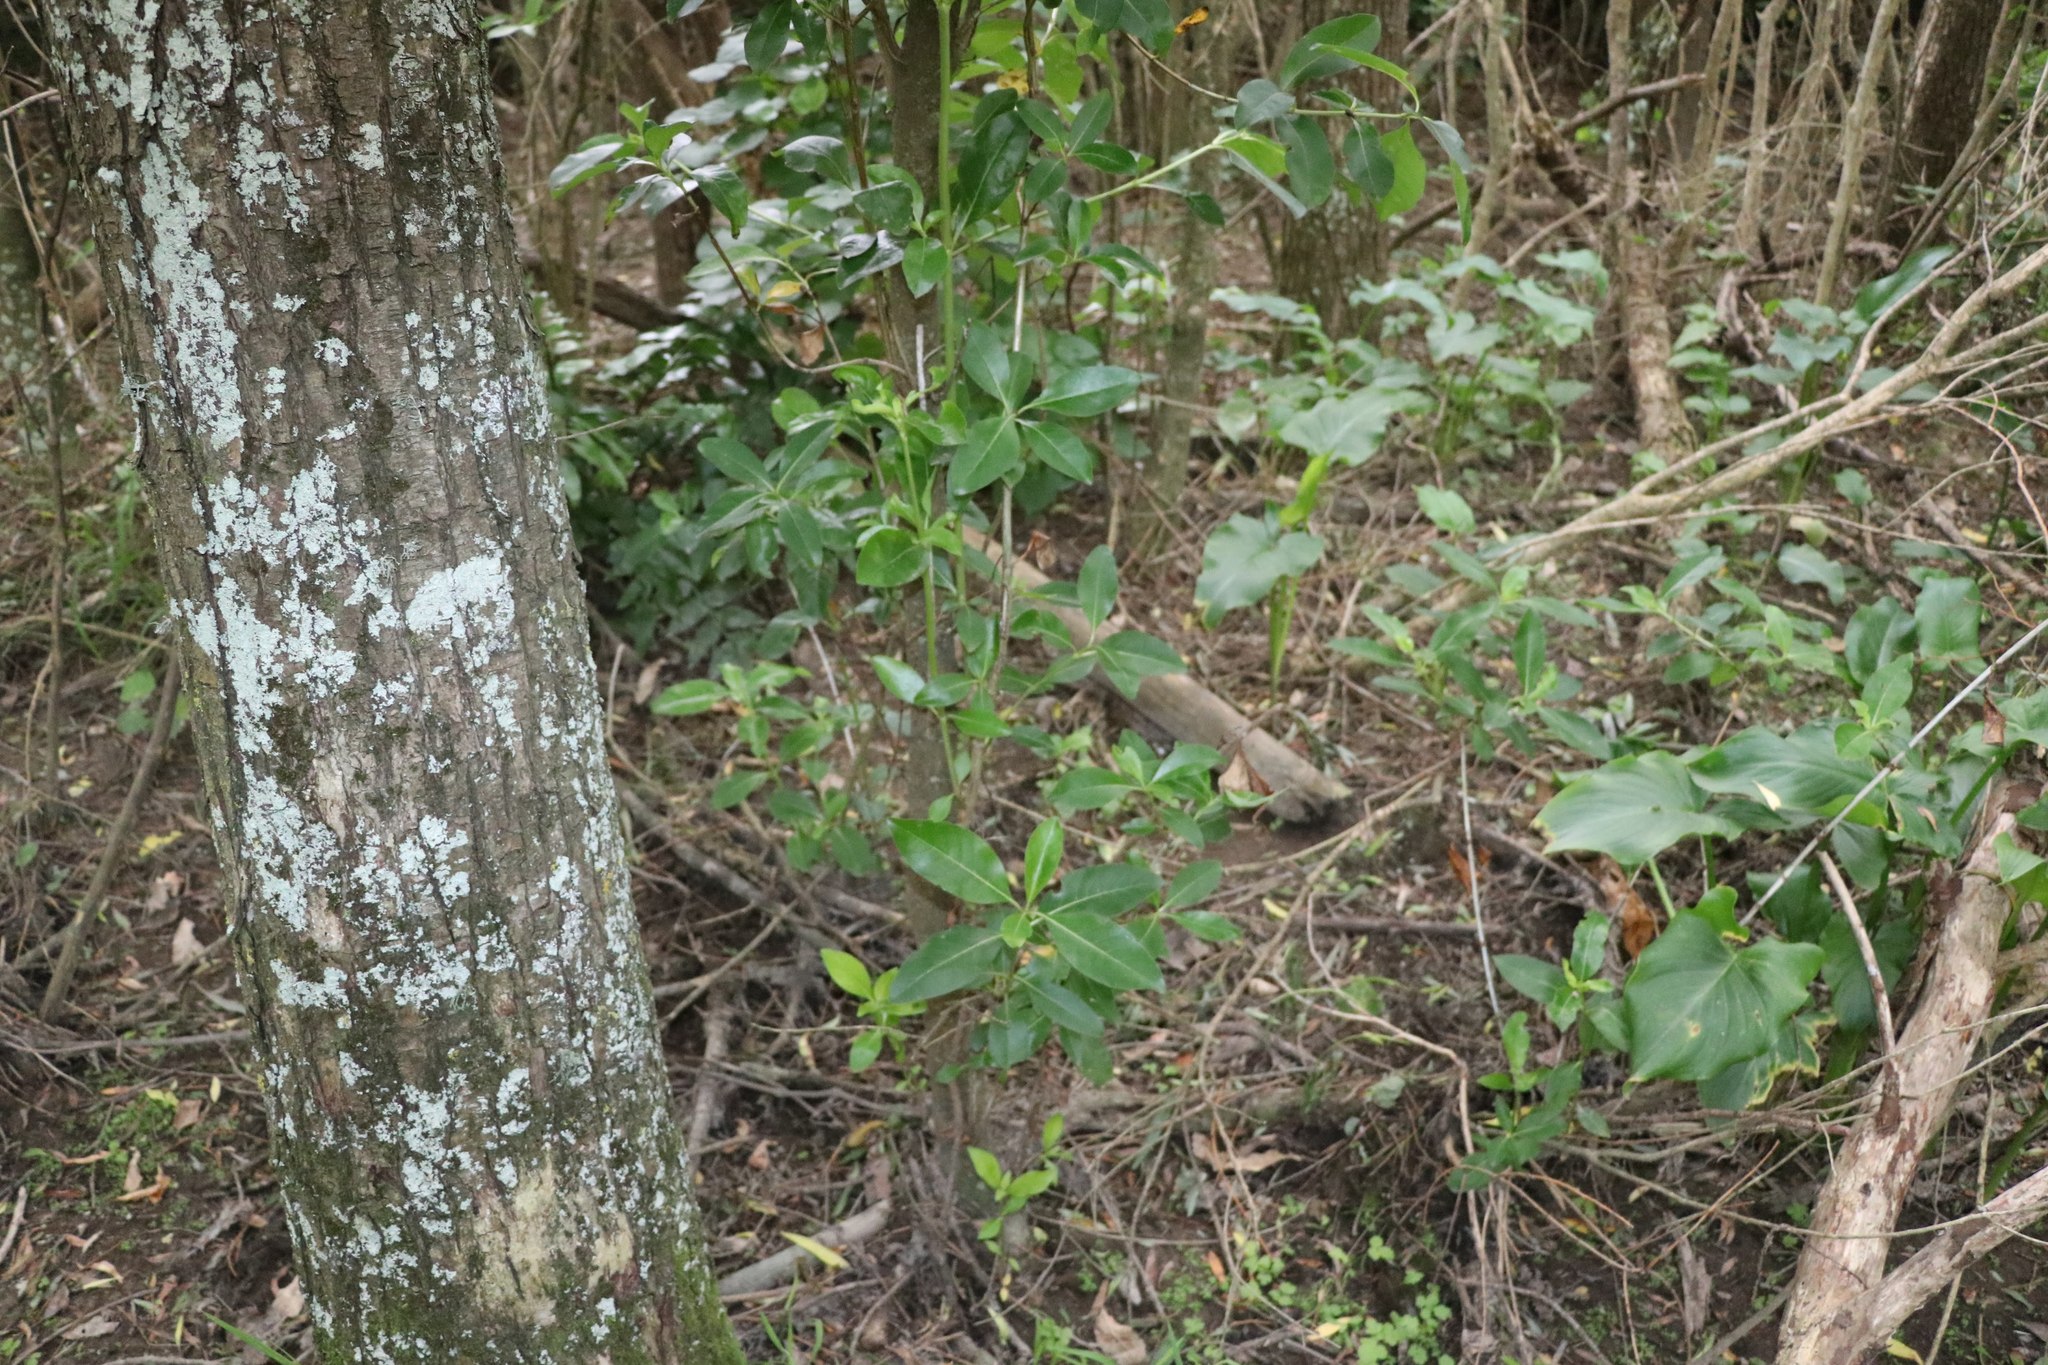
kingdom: Plantae
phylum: Tracheophyta
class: Magnoliopsida
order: Gentianales
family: Rubiaceae
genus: Coprosma
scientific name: Coprosma robusta
